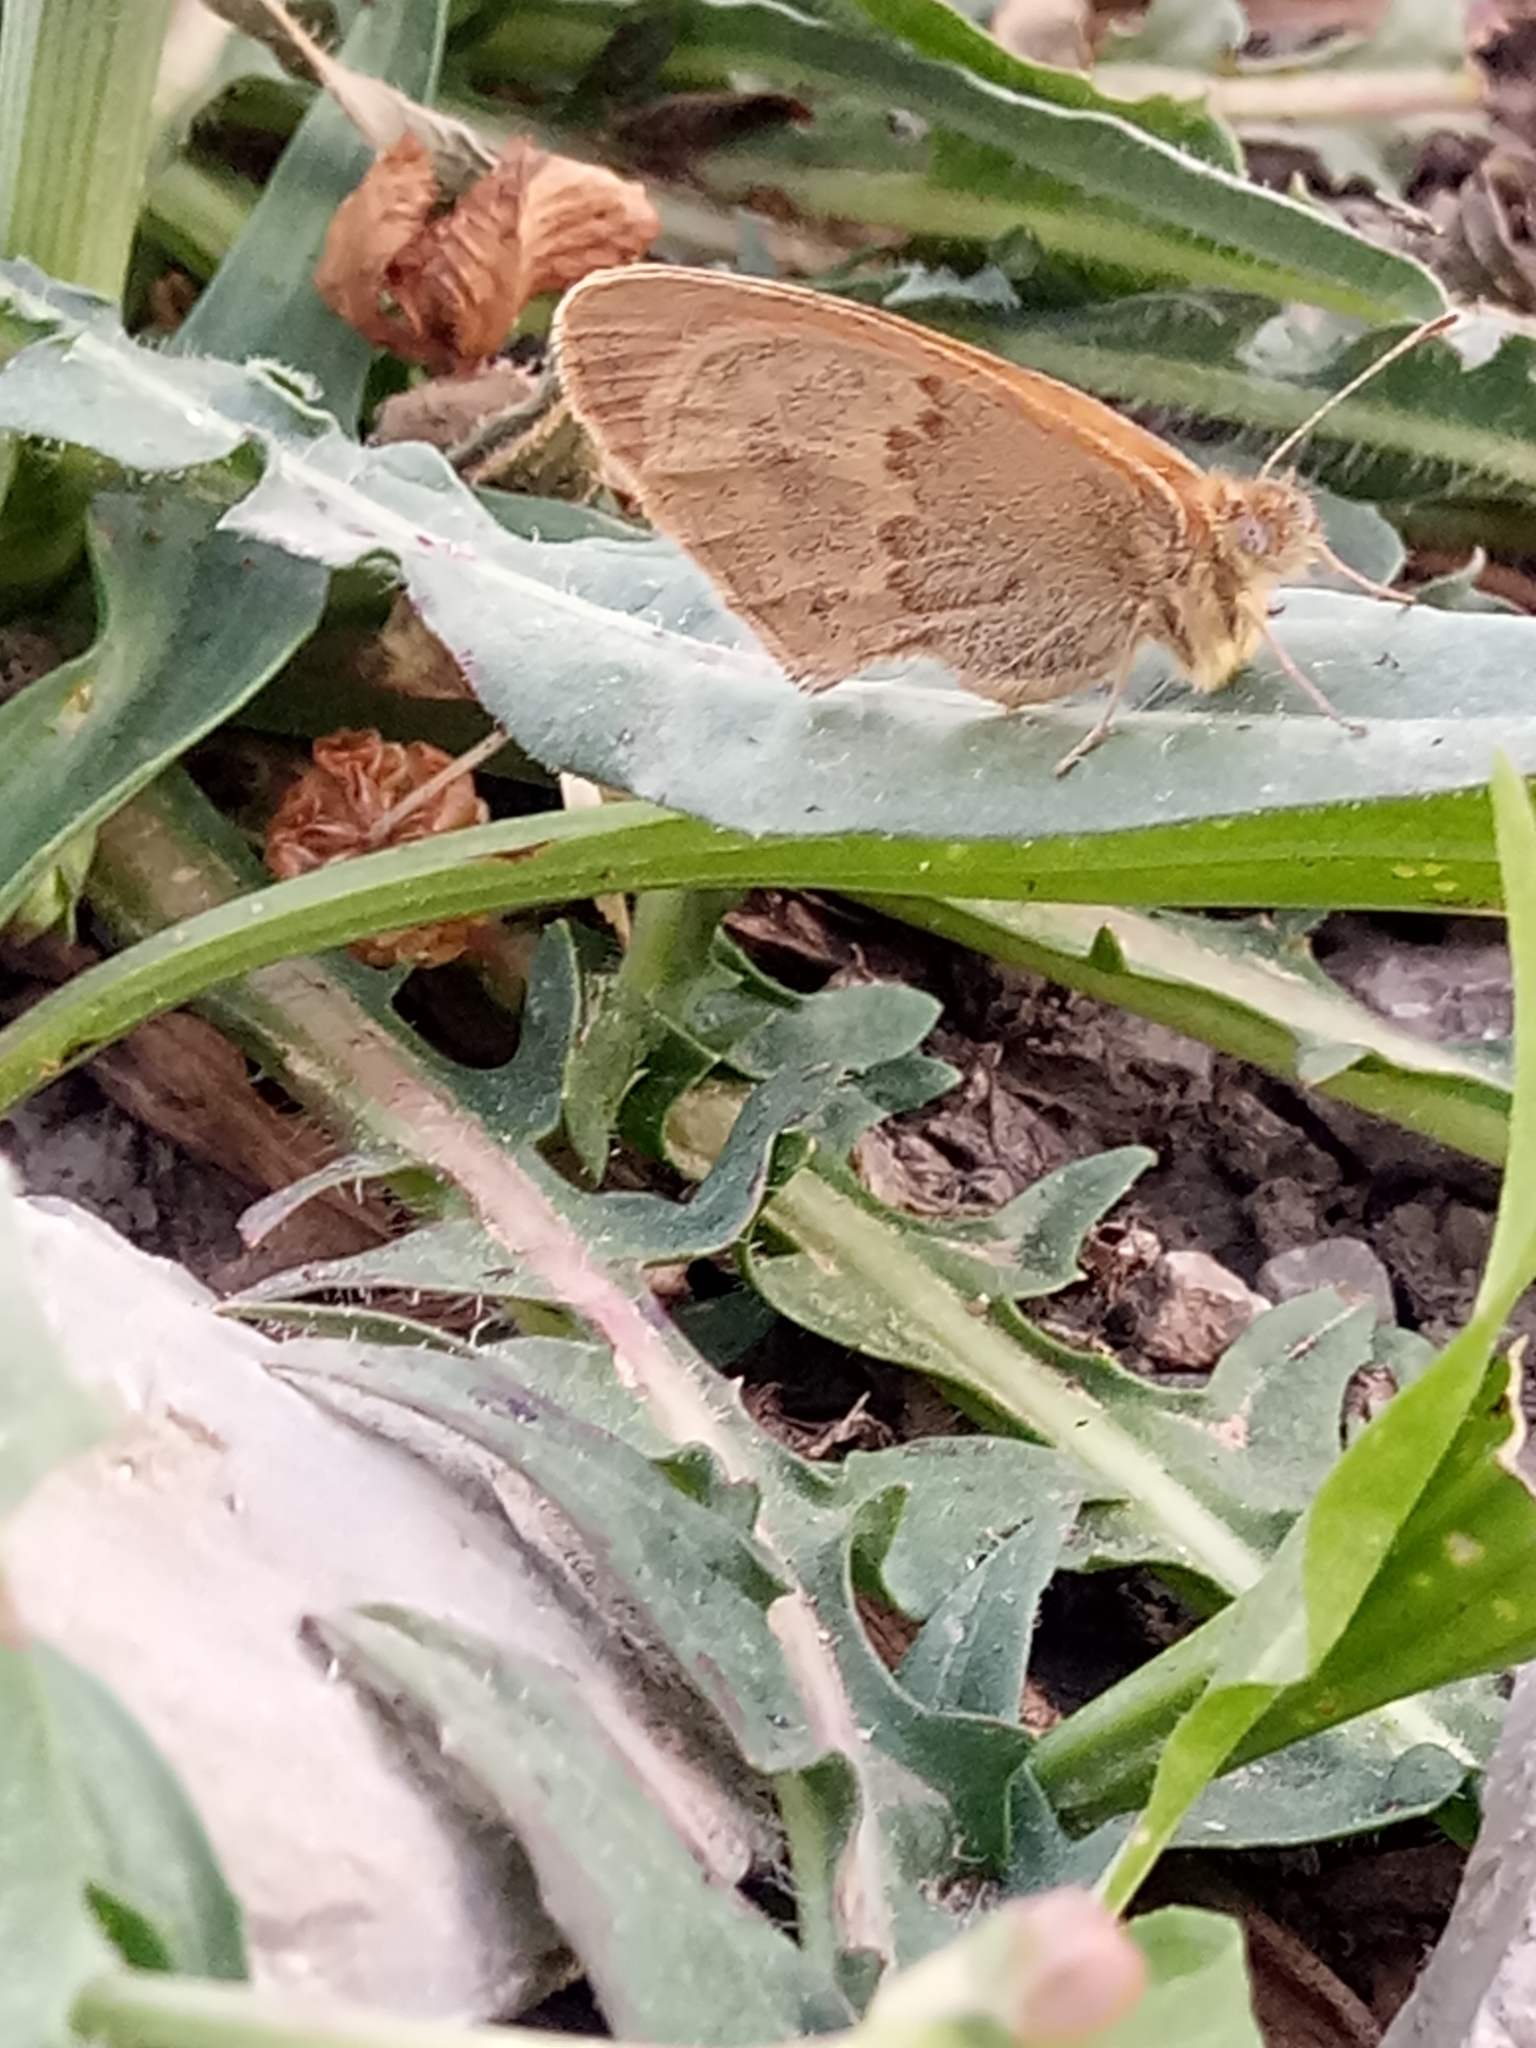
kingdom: Animalia
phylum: Arthropoda
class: Insecta
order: Lepidoptera
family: Nymphalidae
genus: Coenonympha
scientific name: Coenonympha pamphilus
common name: Small heath
